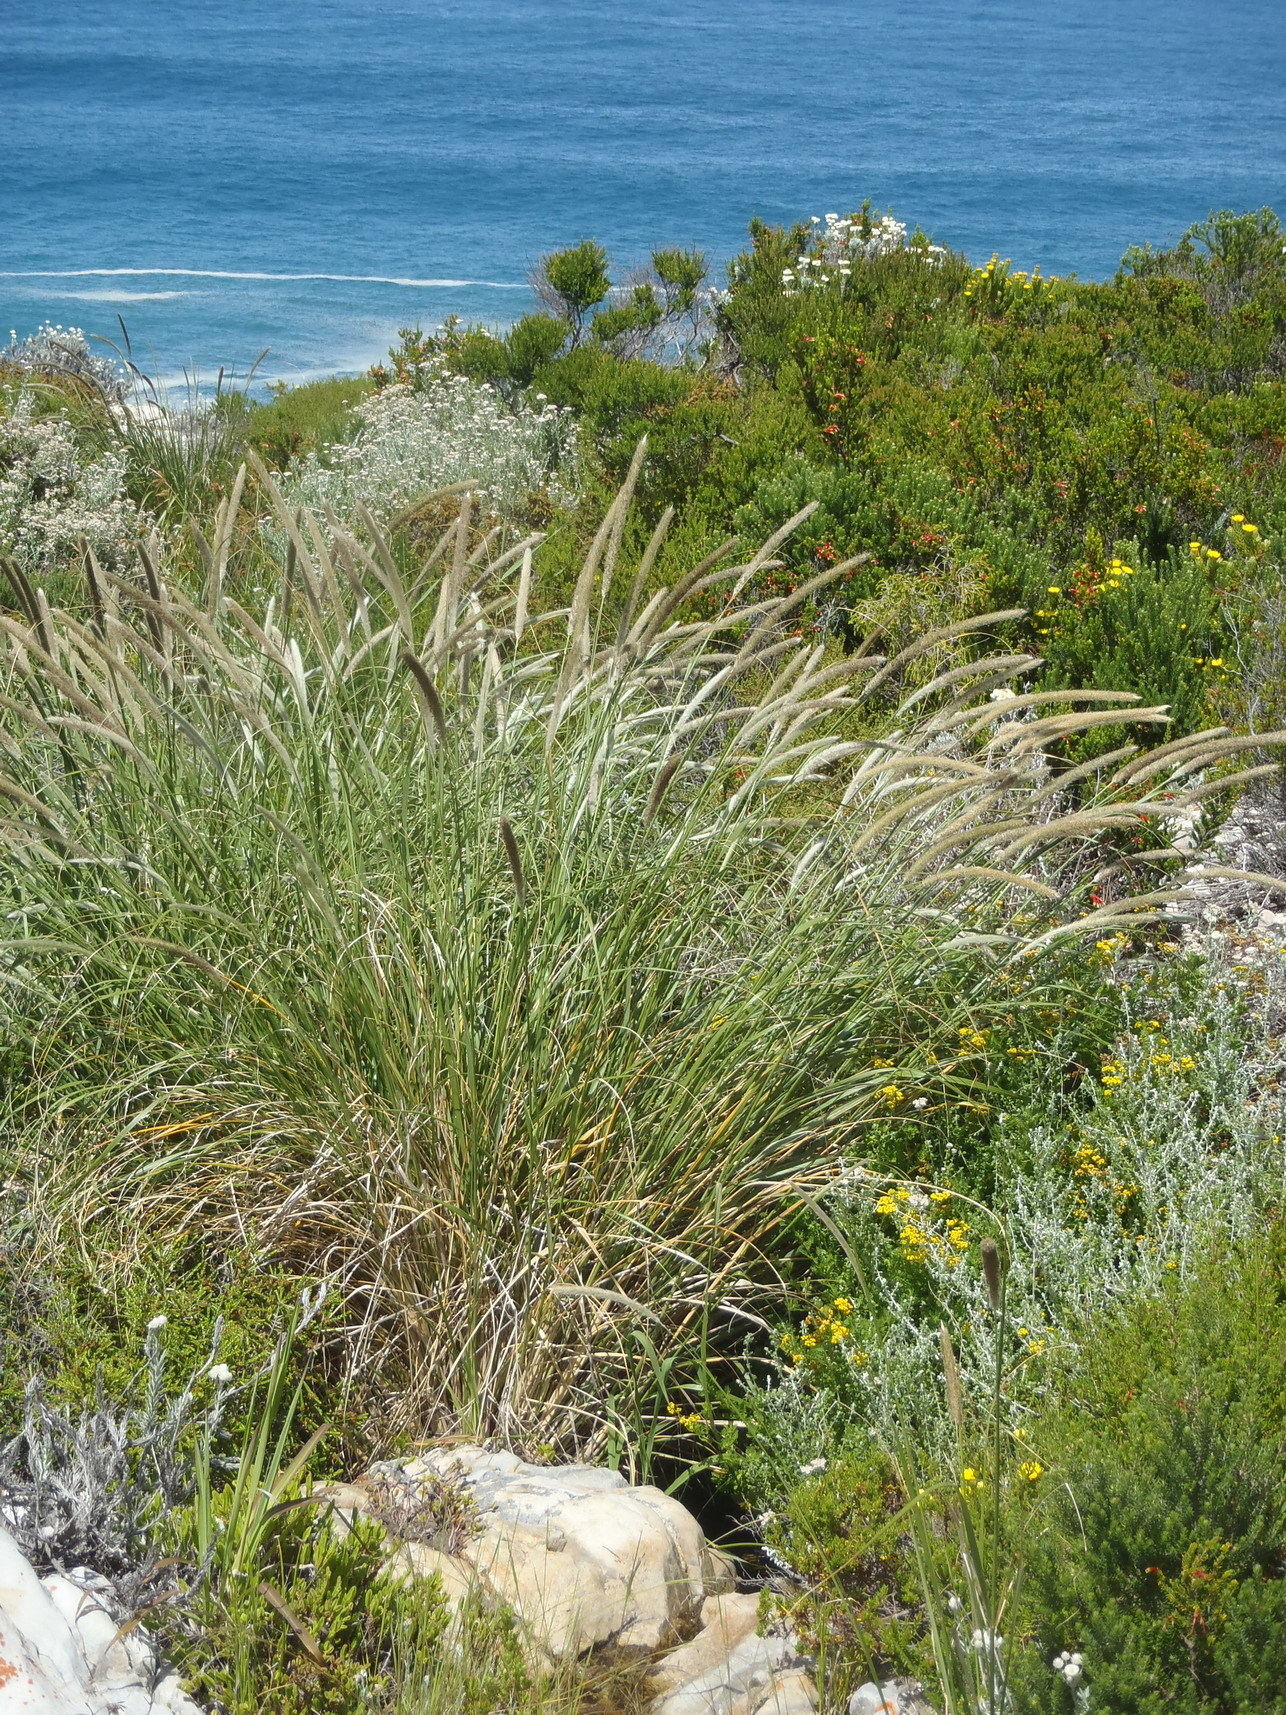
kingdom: Plantae
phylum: Tracheophyta
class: Liliopsida
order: Poales
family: Poaceae
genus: Cenchrus
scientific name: Cenchrus caudatus
